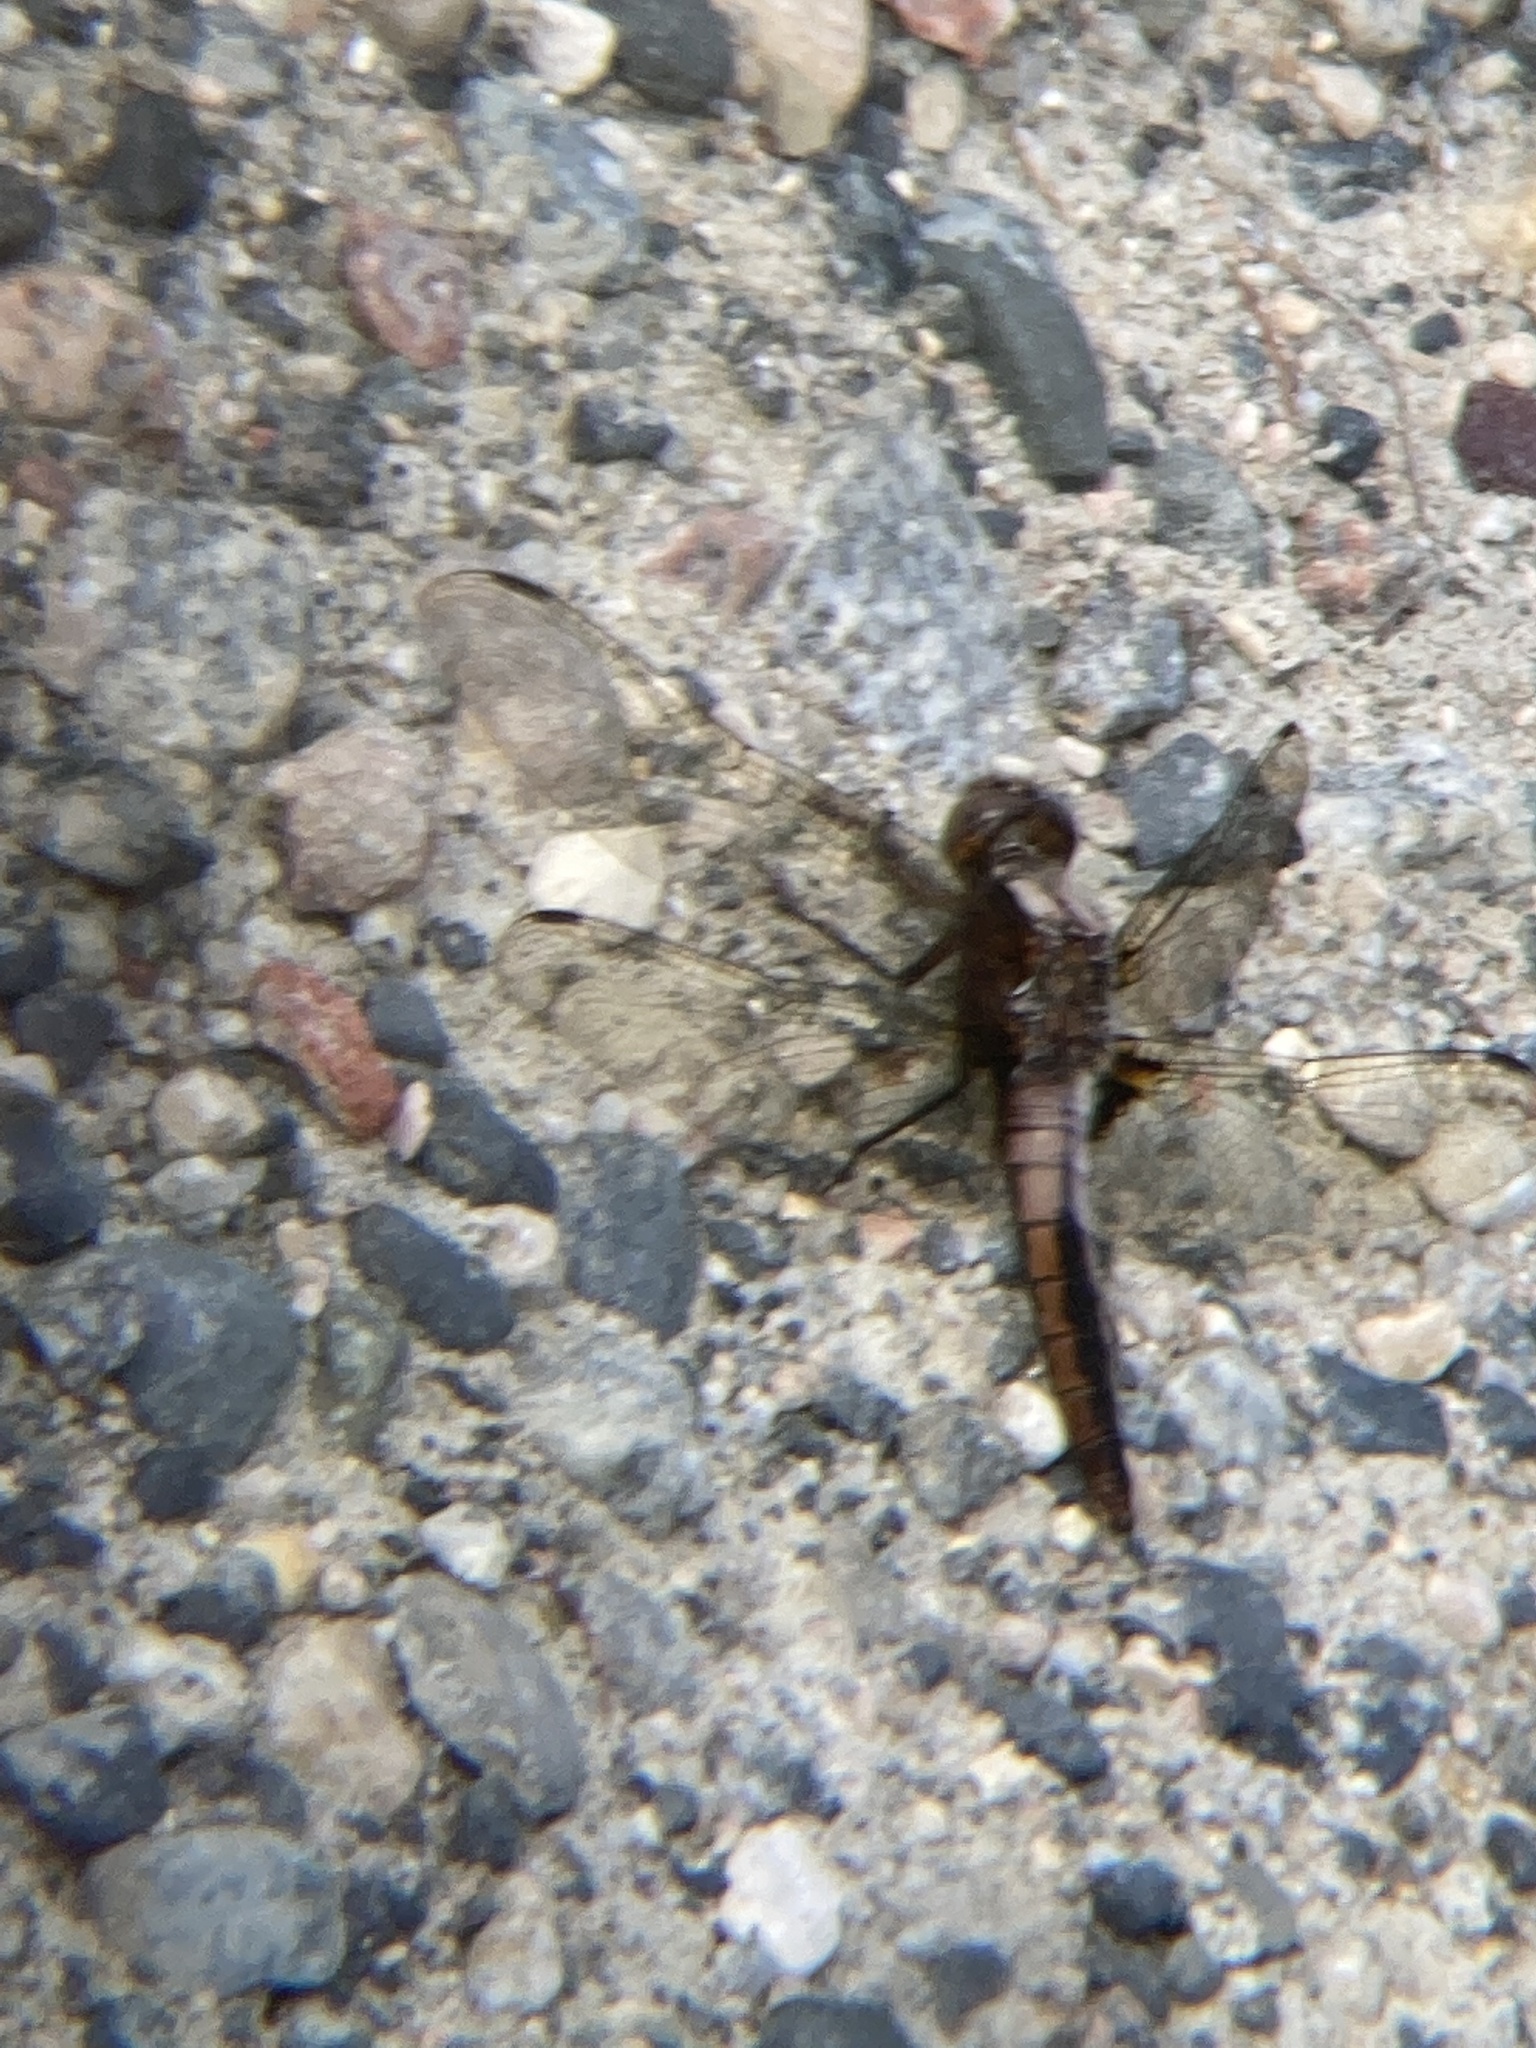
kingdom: Animalia
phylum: Arthropoda
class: Insecta
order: Odonata
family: Libellulidae
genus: Ladona
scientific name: Ladona julia
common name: Chalk-fronted corporal
